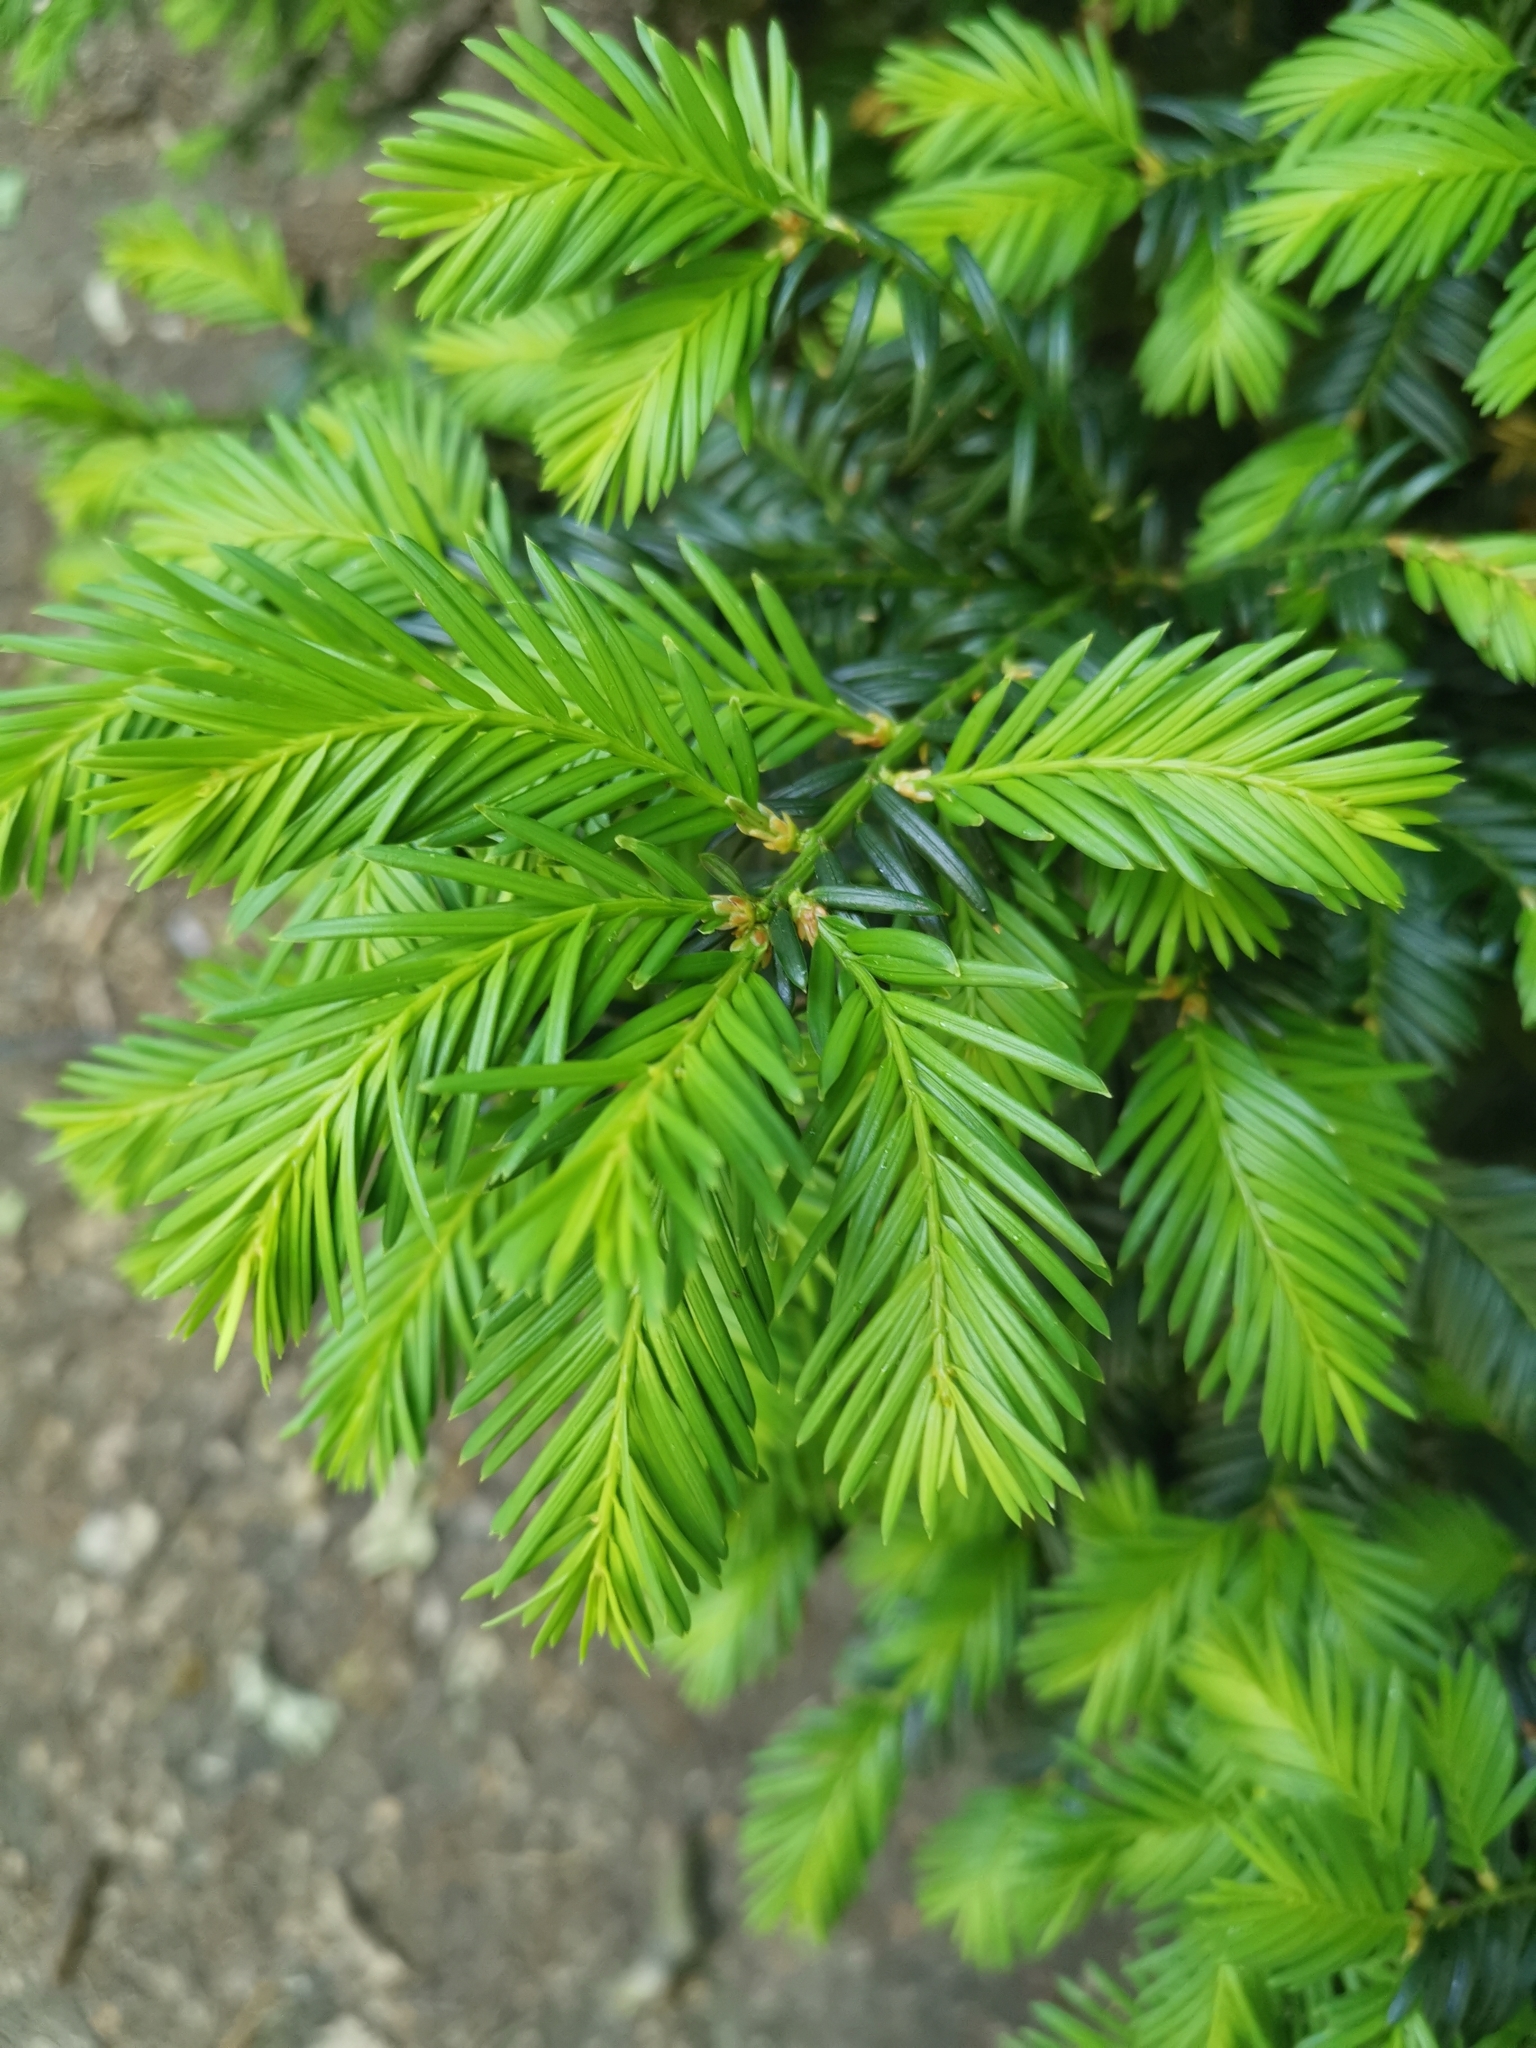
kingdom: Plantae
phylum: Tracheophyta
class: Pinopsida
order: Pinales
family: Taxaceae
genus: Taxus
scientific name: Taxus baccata
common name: Yew
